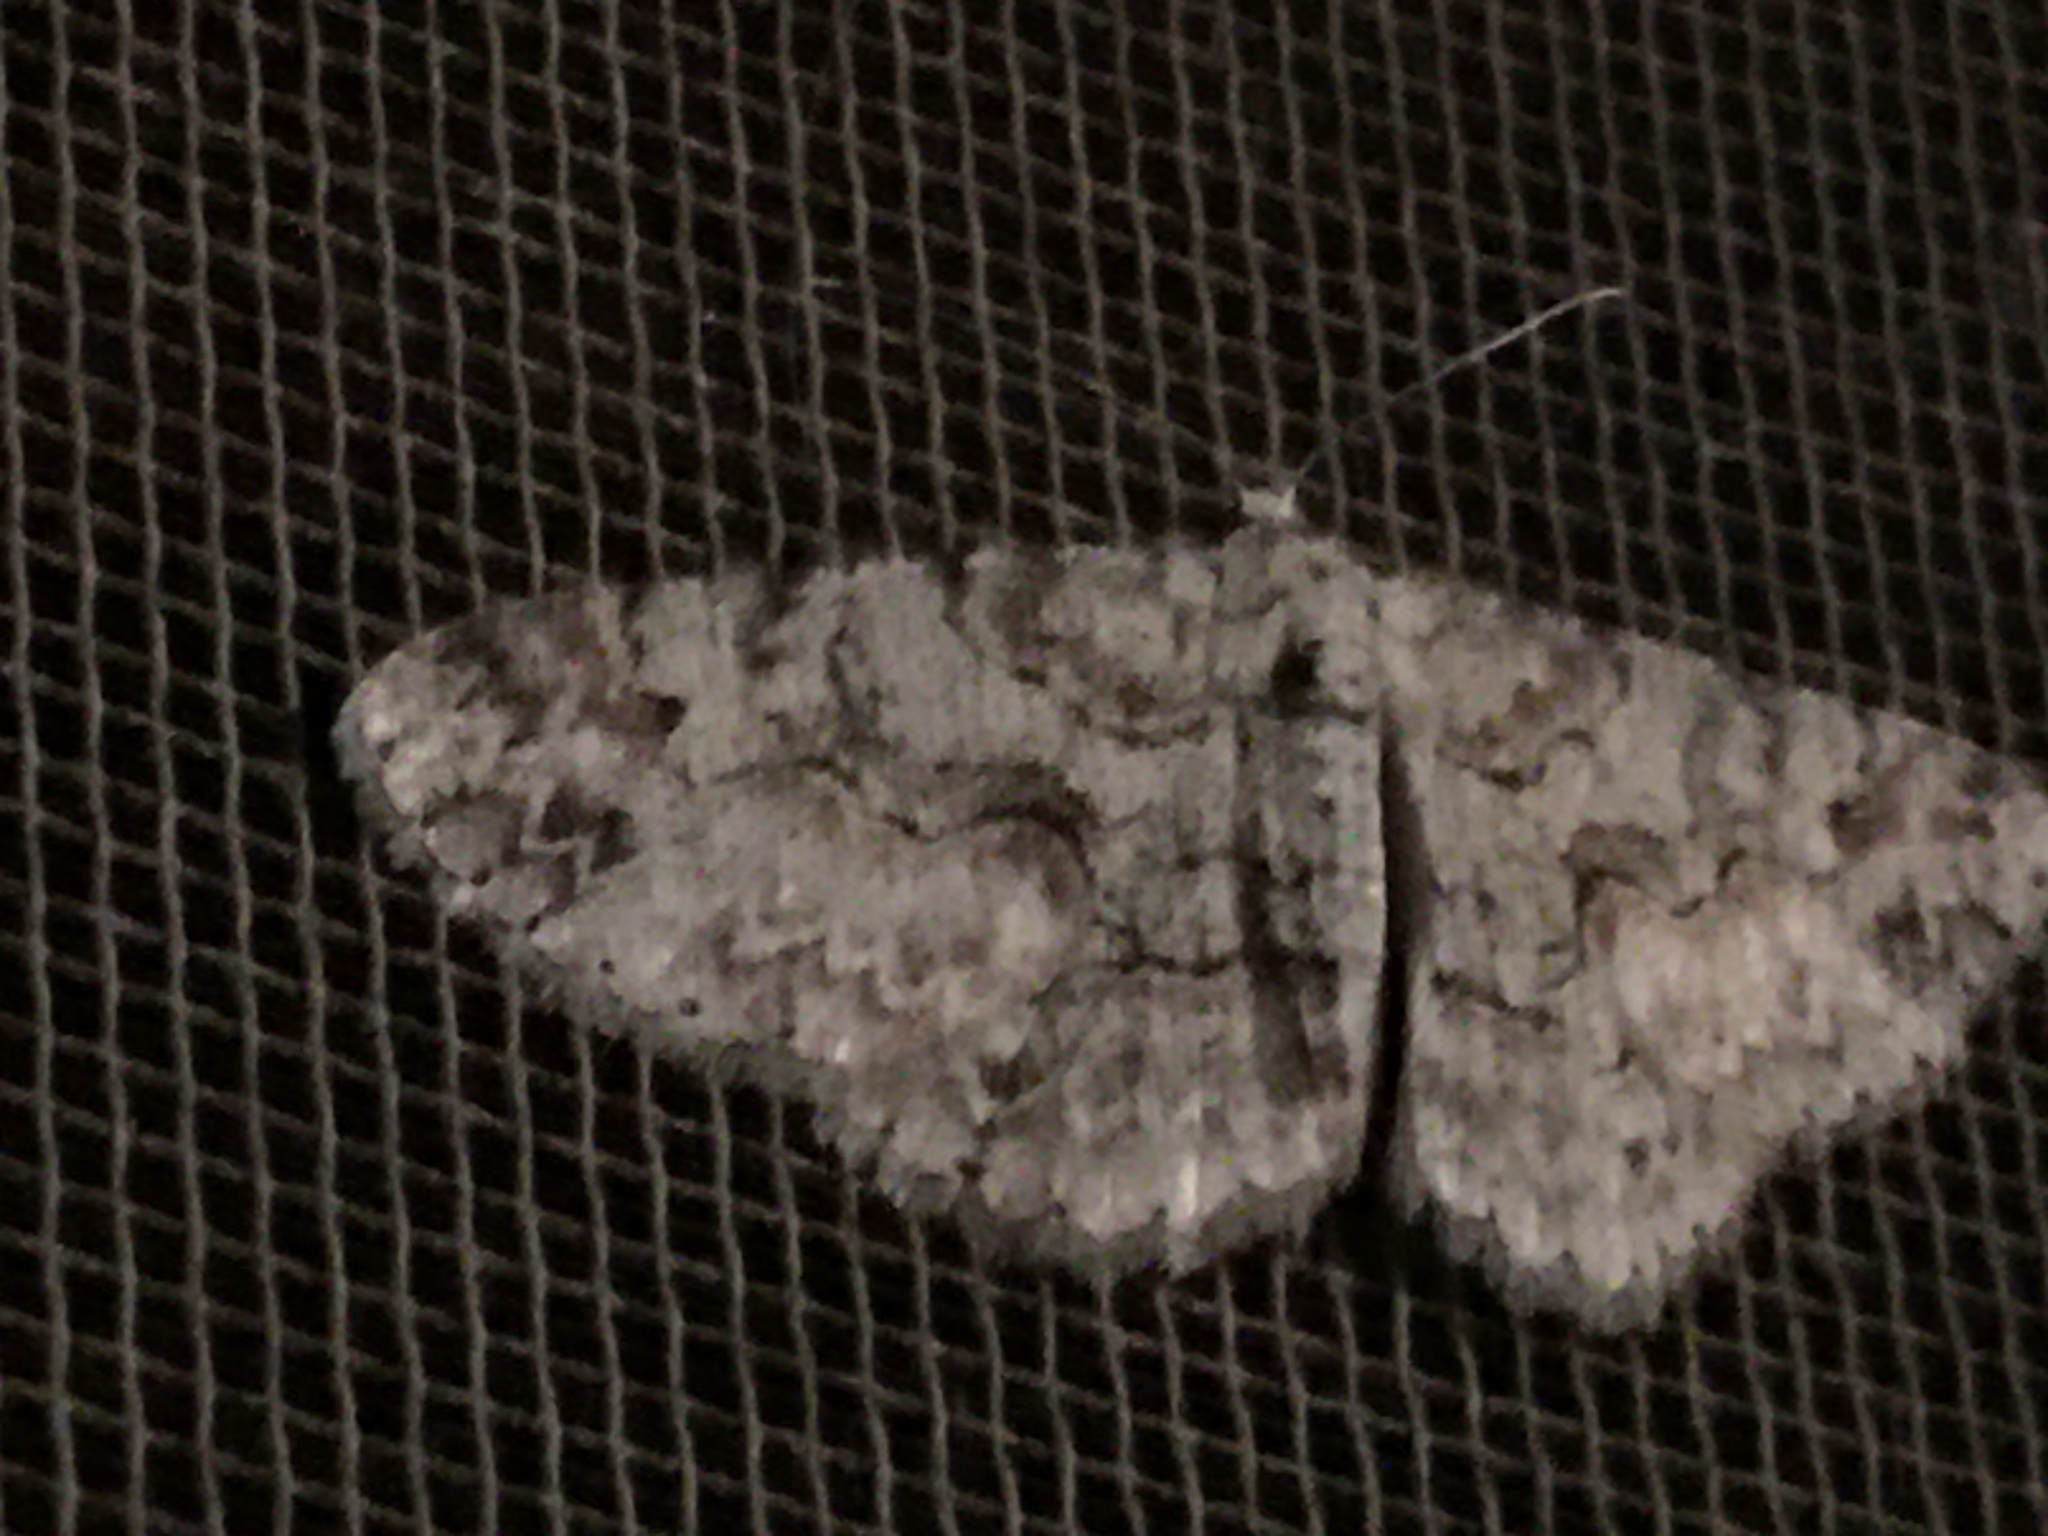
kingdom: Animalia
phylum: Arthropoda
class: Insecta
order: Lepidoptera
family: Geometridae
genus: Iridopsis
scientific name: Iridopsis defectaria
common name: Brown-shaded gray
